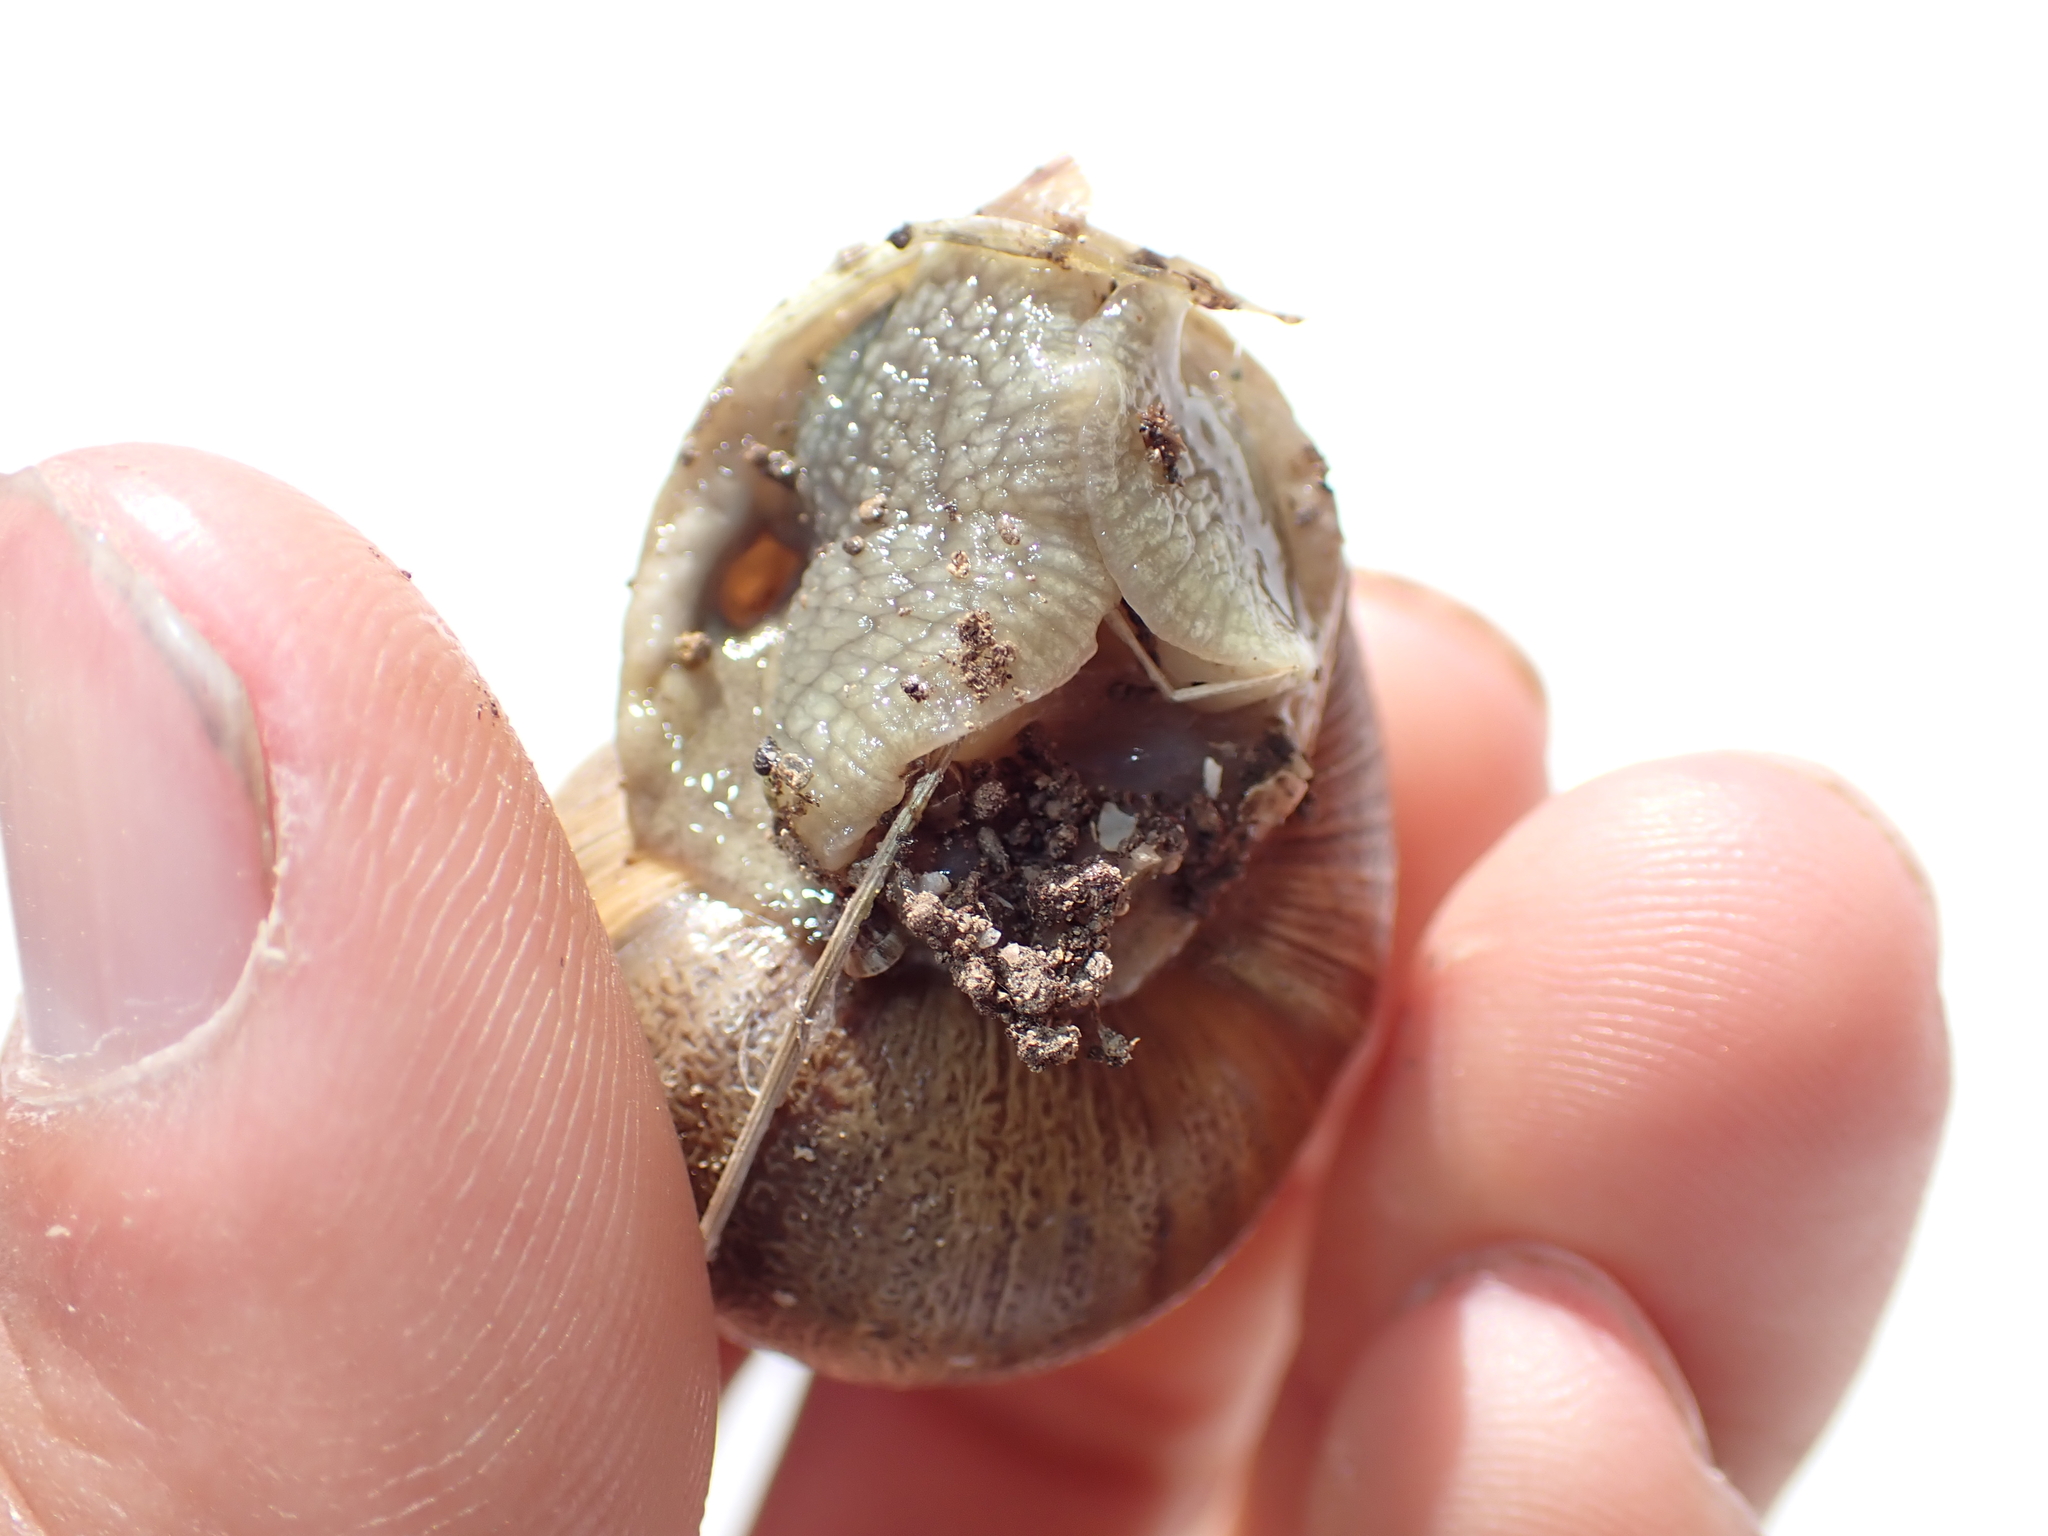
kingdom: Animalia
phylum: Mollusca
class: Gastropoda
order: Stylommatophora
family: Helicidae
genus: Cornu
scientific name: Cornu aspersum
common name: Brown garden snail
